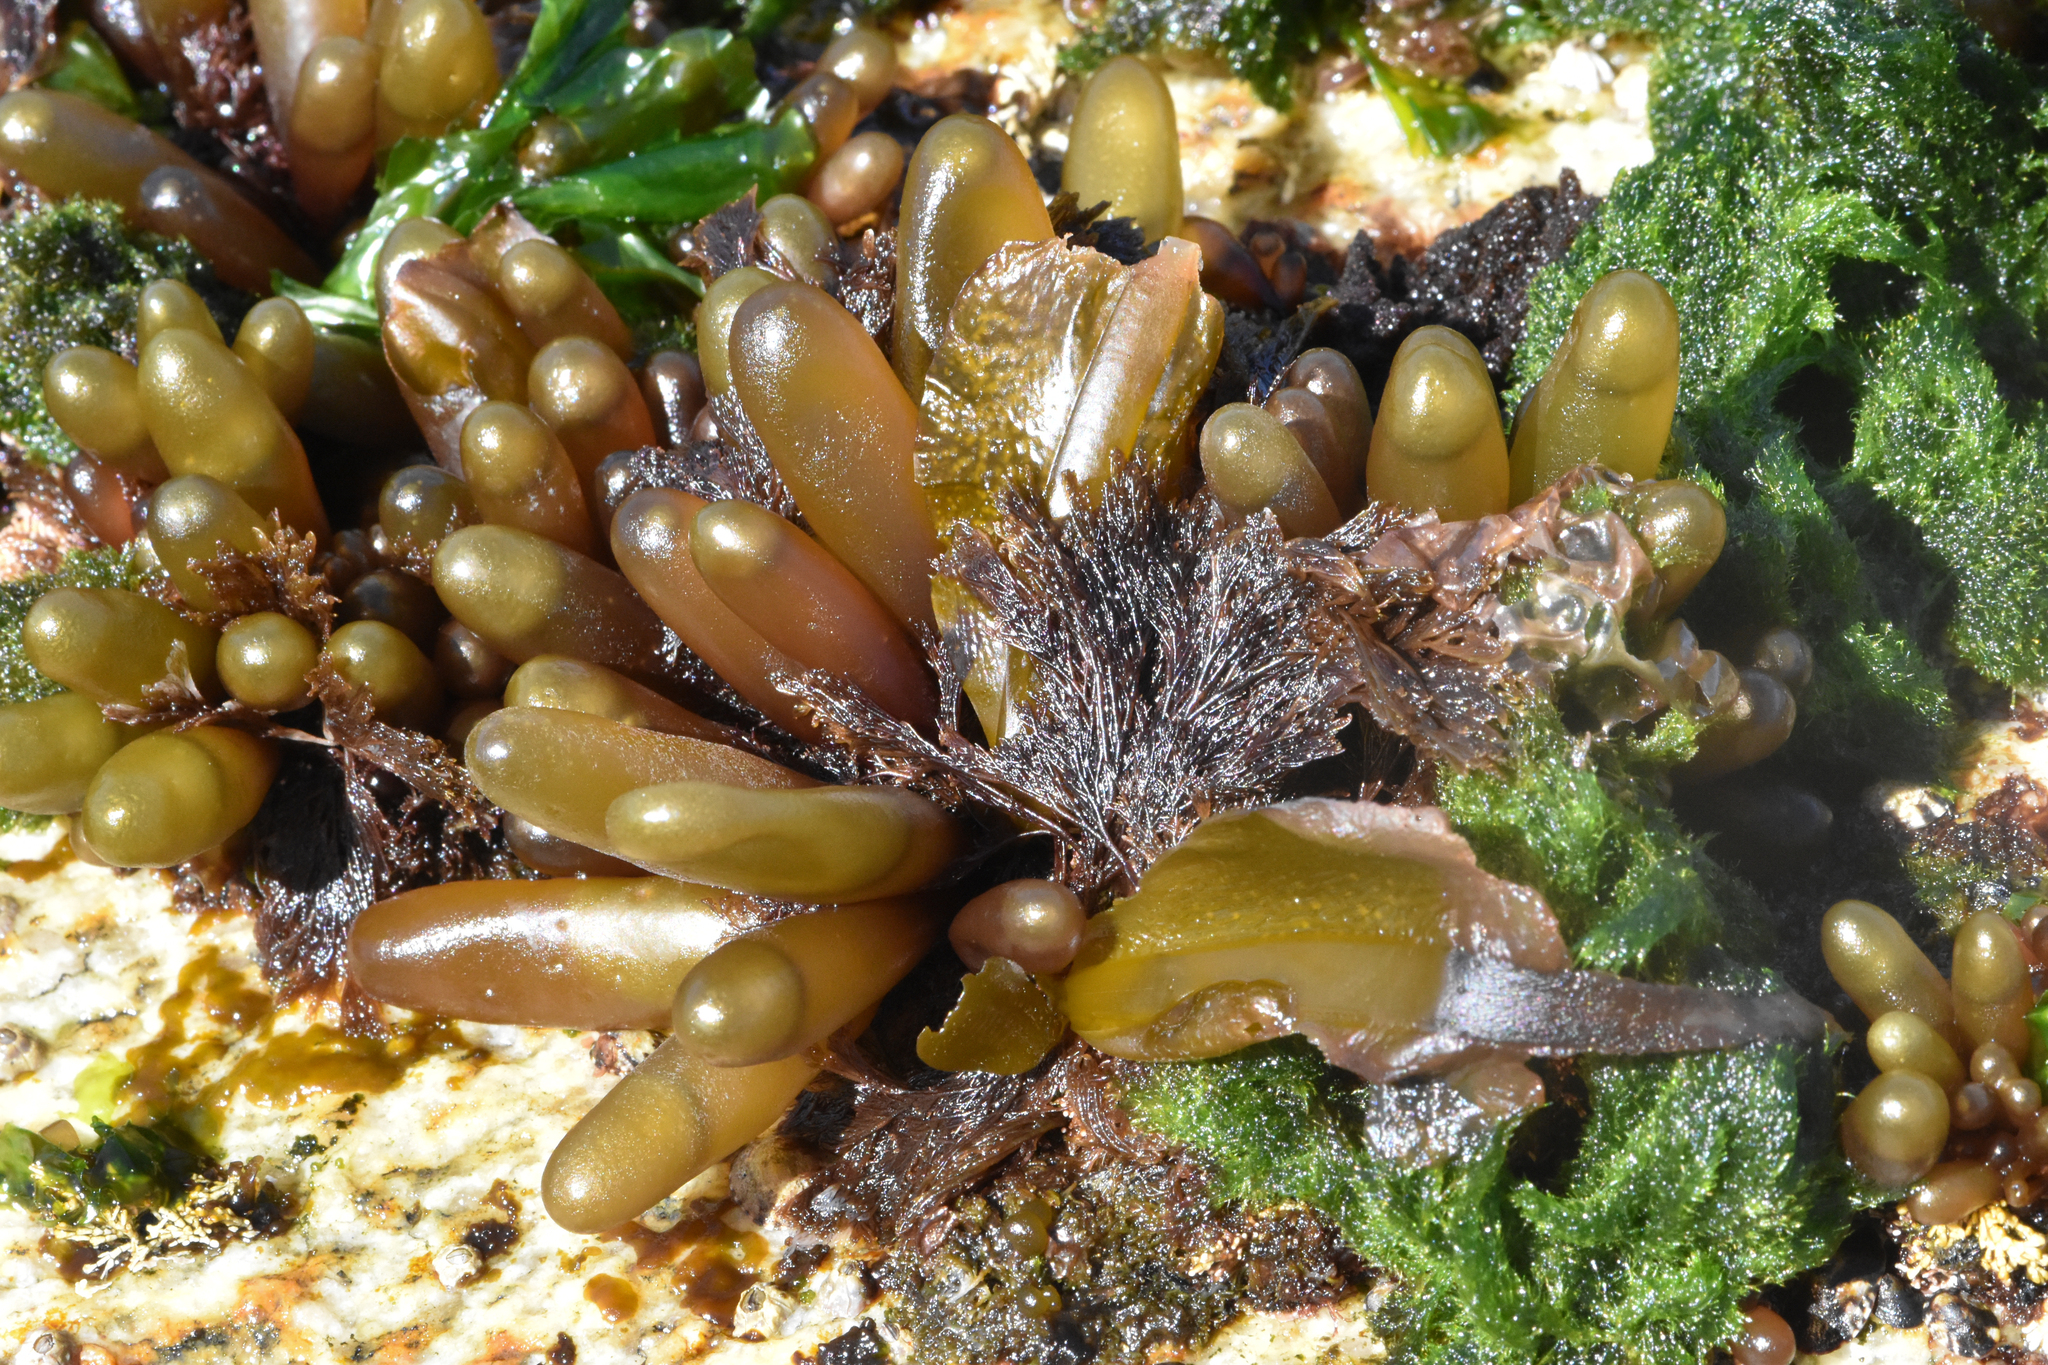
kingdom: Plantae
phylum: Rhodophyta
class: Florideophyceae
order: Palmariales
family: Palmariaceae
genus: Halosaccion
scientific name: Halosaccion glandiforme
